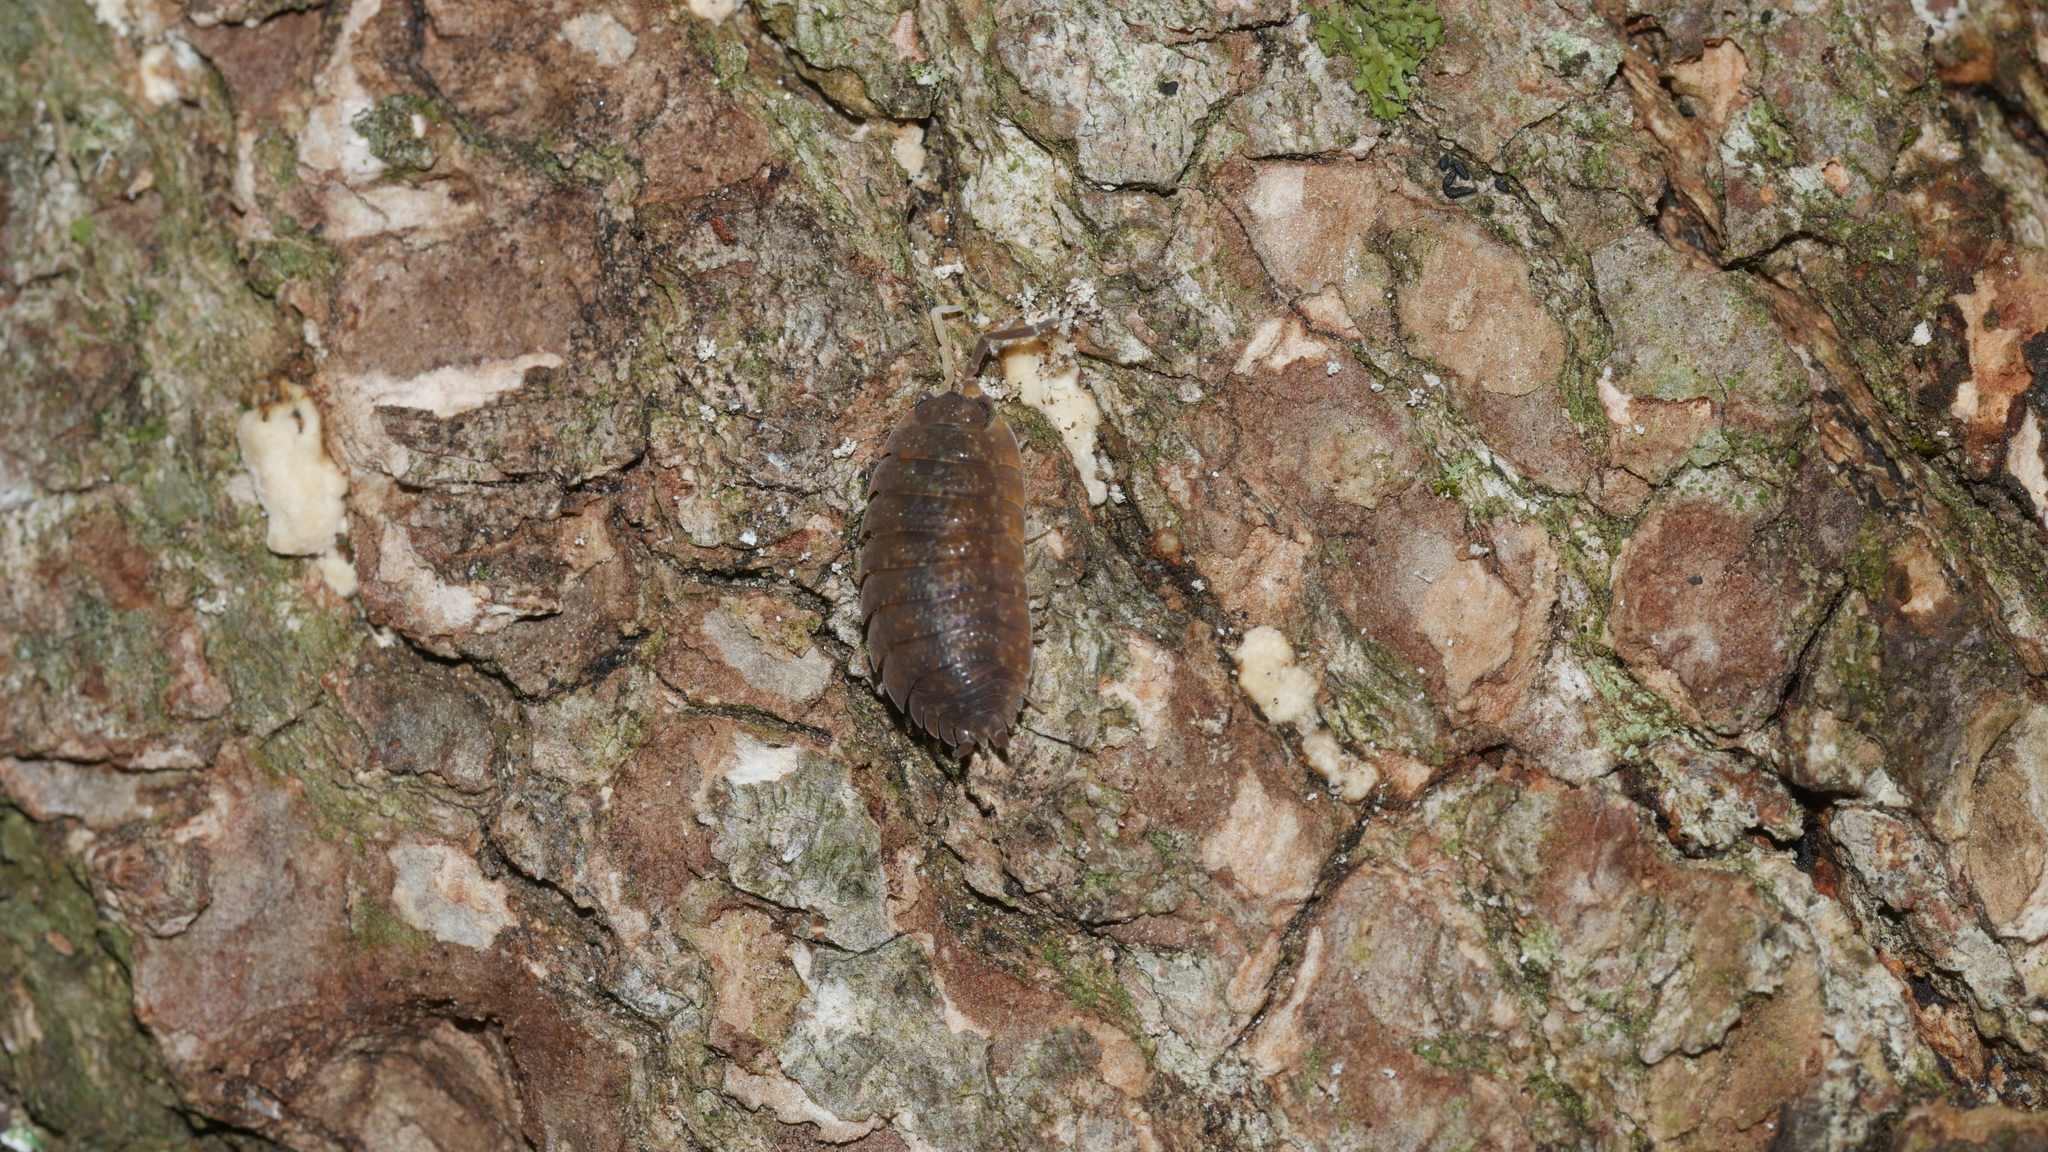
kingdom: Animalia
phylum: Arthropoda
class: Malacostraca
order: Isopoda
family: Porcellionidae
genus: Porcellio
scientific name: Porcellio scaber
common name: Common rough woodlouse
